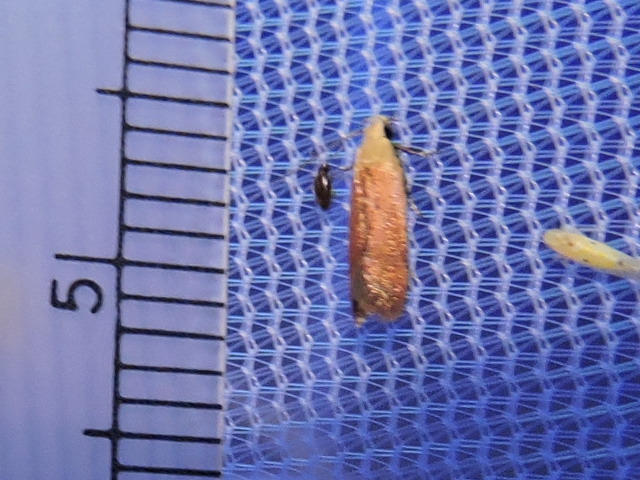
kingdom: Animalia
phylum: Arthropoda
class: Insecta
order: Lepidoptera
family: Gelechiidae
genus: Anacampsis
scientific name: Anacampsis fullonella
